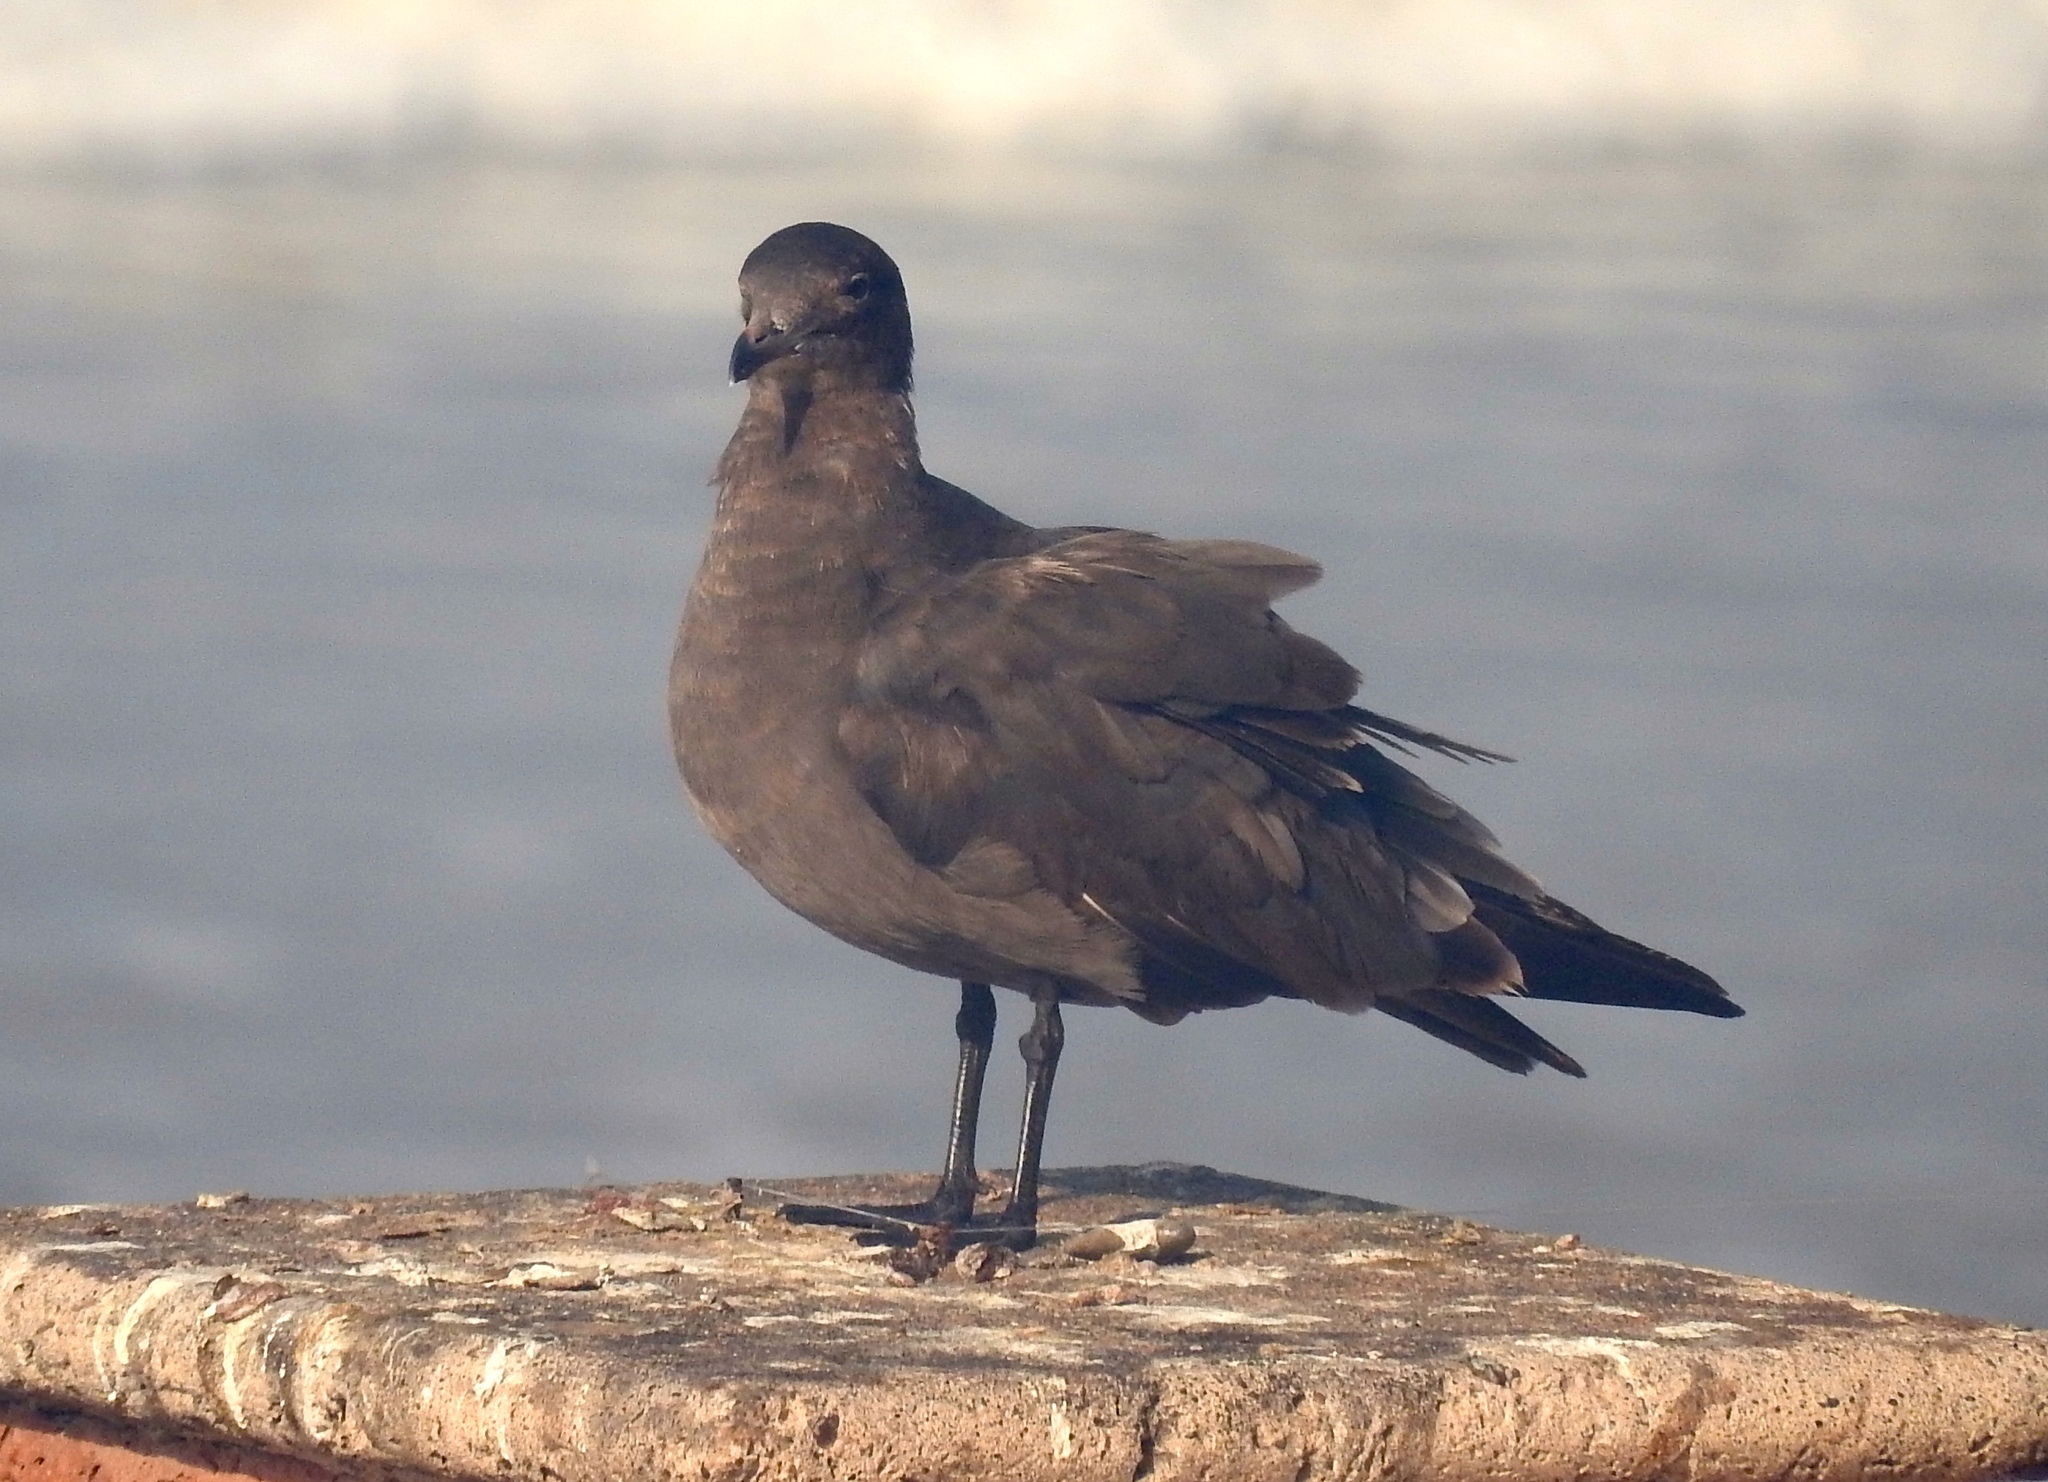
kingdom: Animalia
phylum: Chordata
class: Aves
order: Charadriiformes
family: Laridae
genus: Larus
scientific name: Larus heermanni
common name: Heermann's gull
